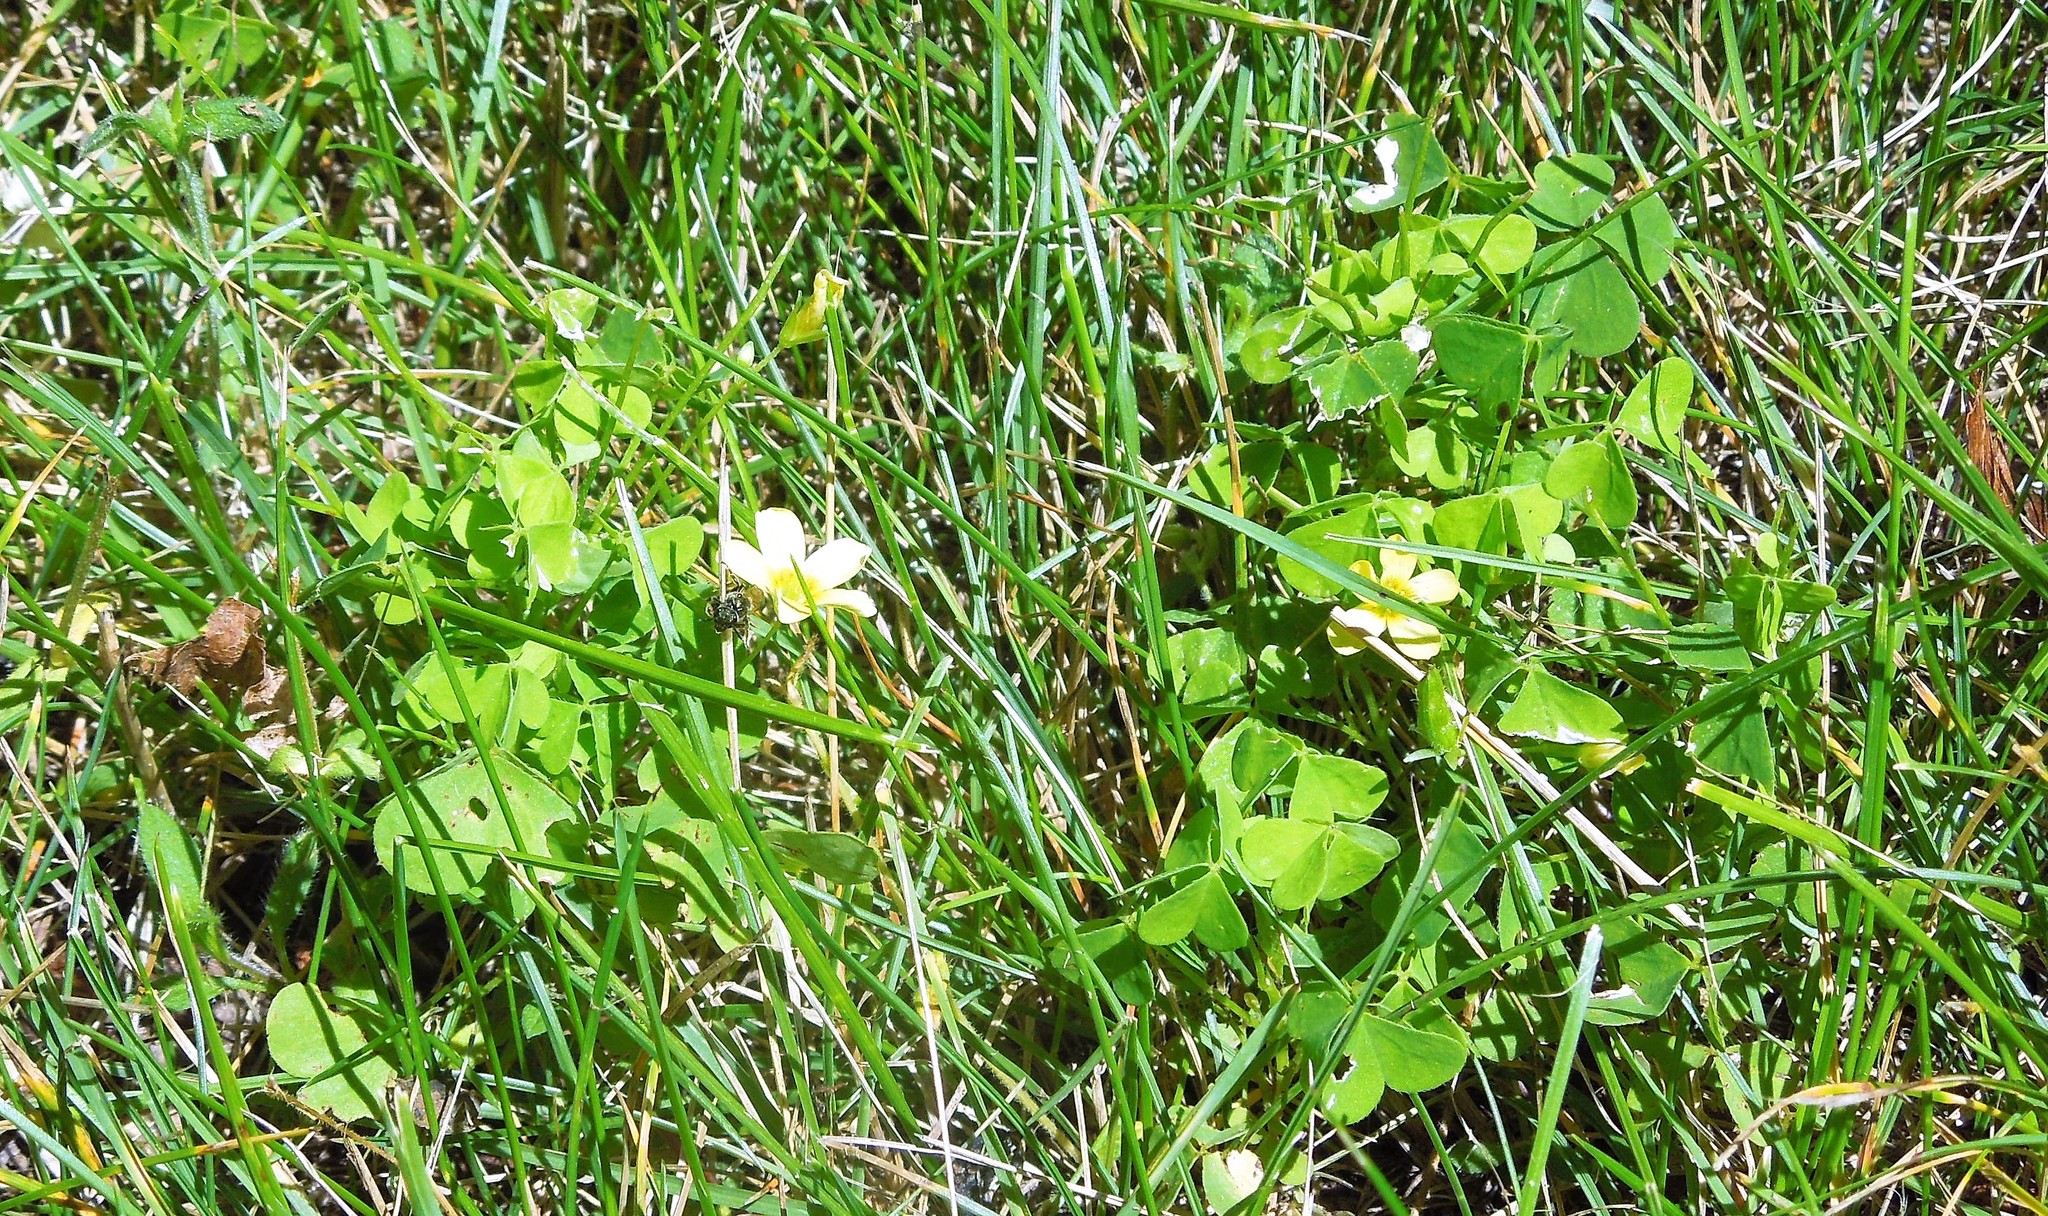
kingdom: Plantae
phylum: Tracheophyta
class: Magnoliopsida
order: Oxalidales
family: Oxalidaceae
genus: Oxalis
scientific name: Oxalis
